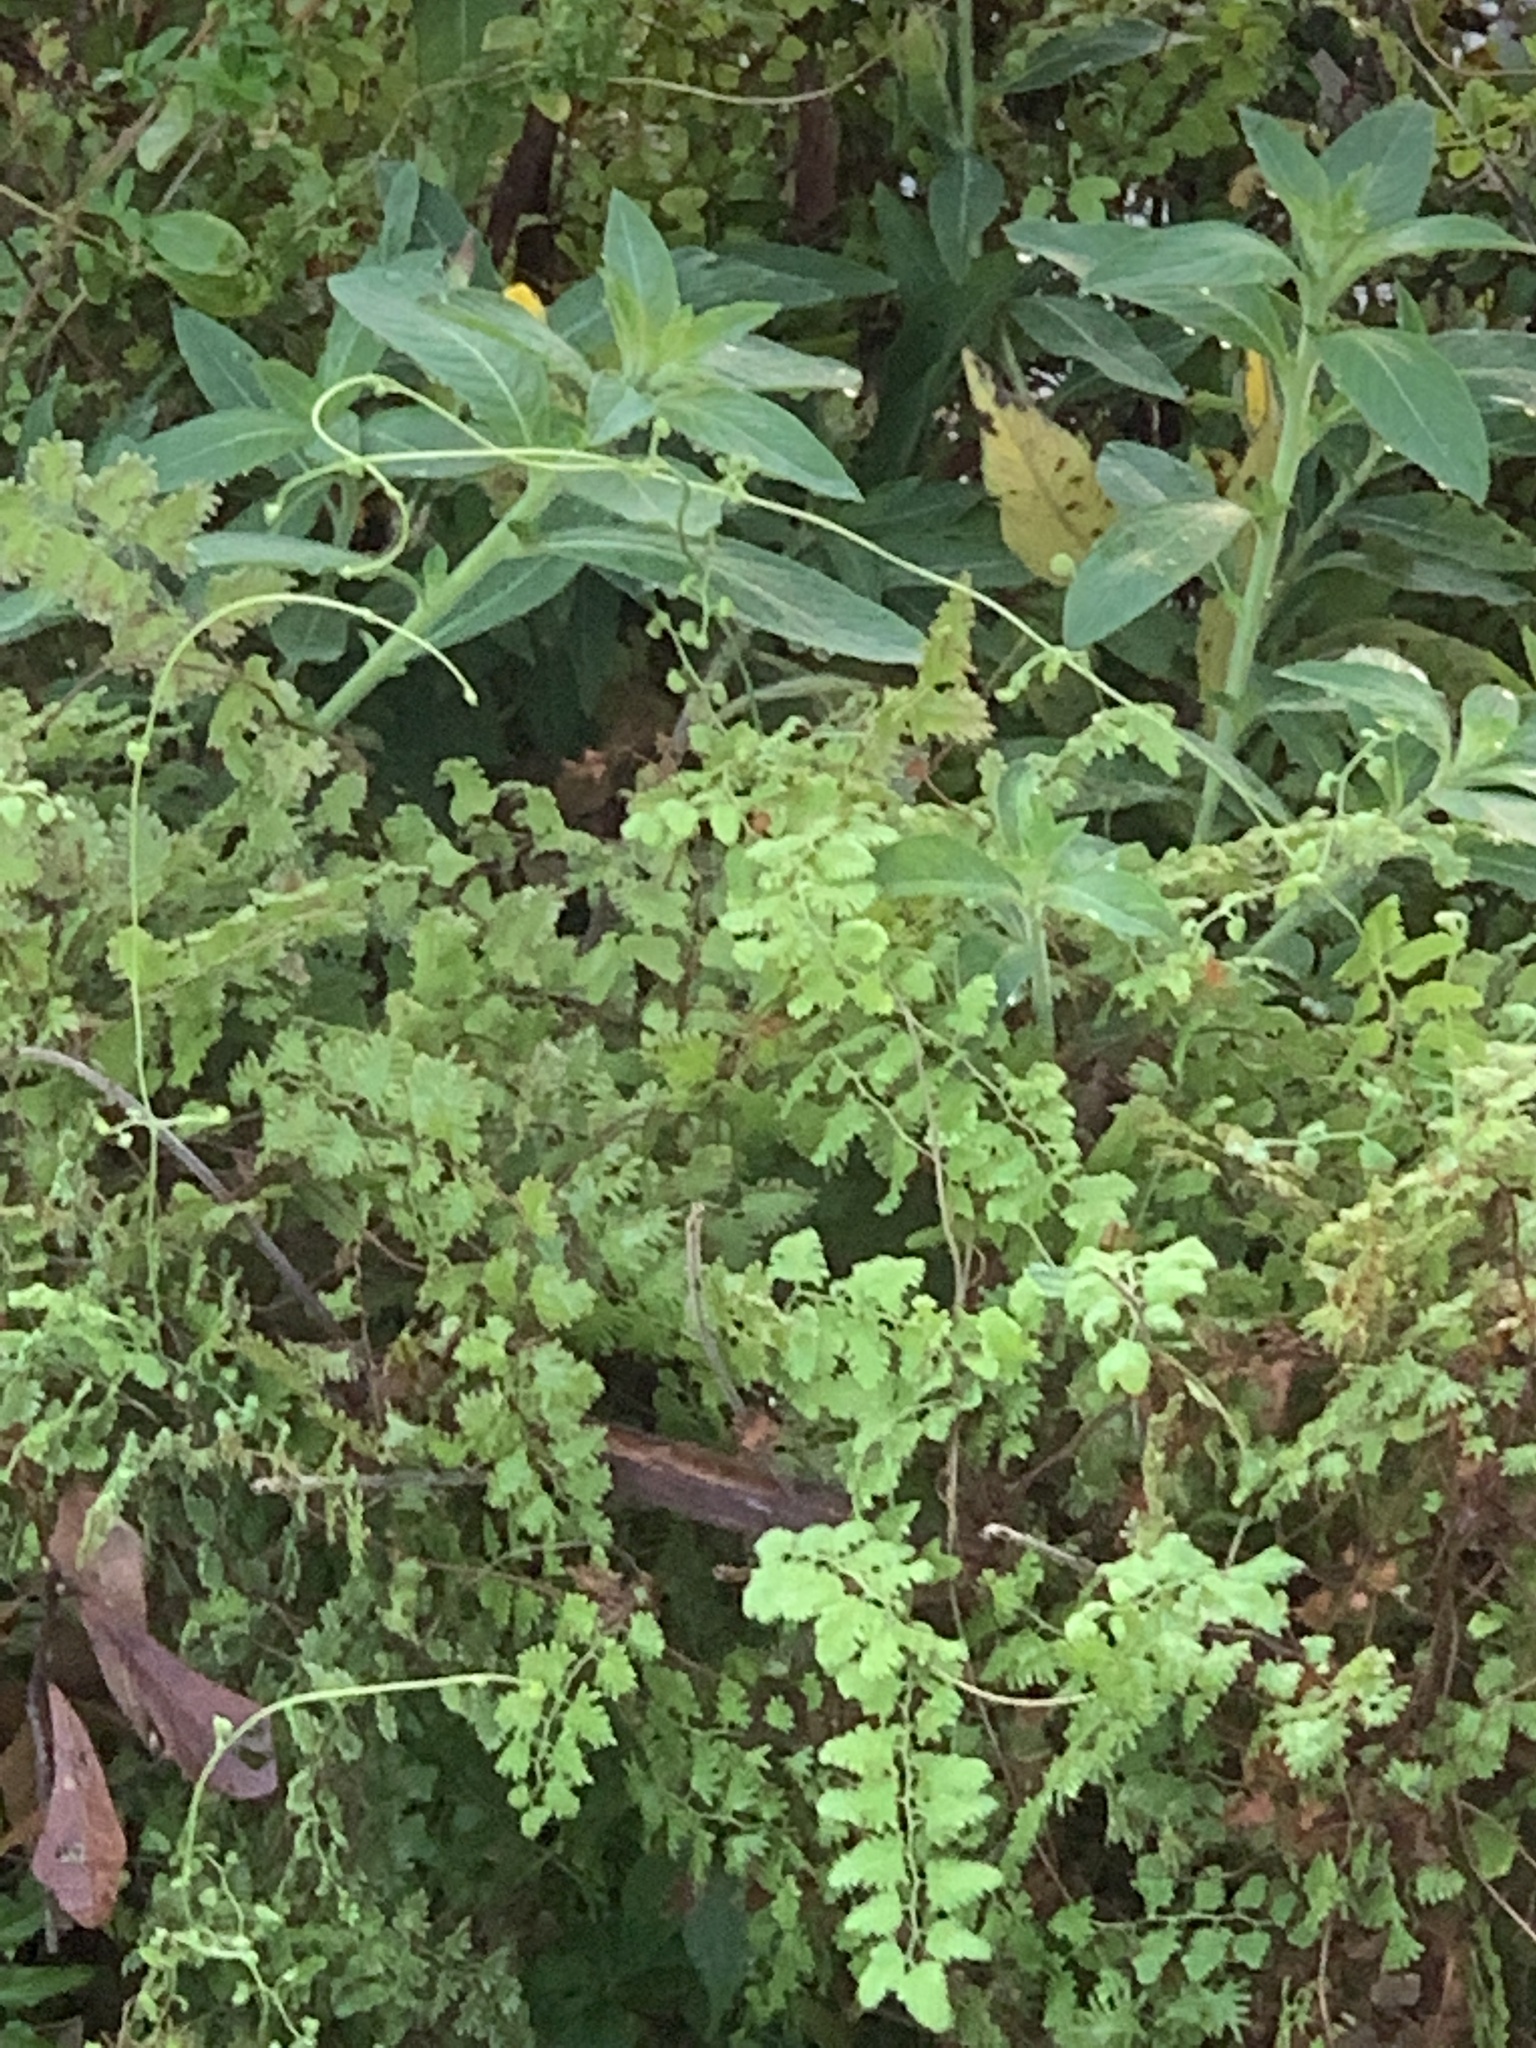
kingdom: Plantae
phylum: Tracheophyta
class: Polypodiopsida
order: Schizaeales
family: Lygodiaceae
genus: Lygodium
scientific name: Lygodium microphyllum
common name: Small-leaf climbing fern
